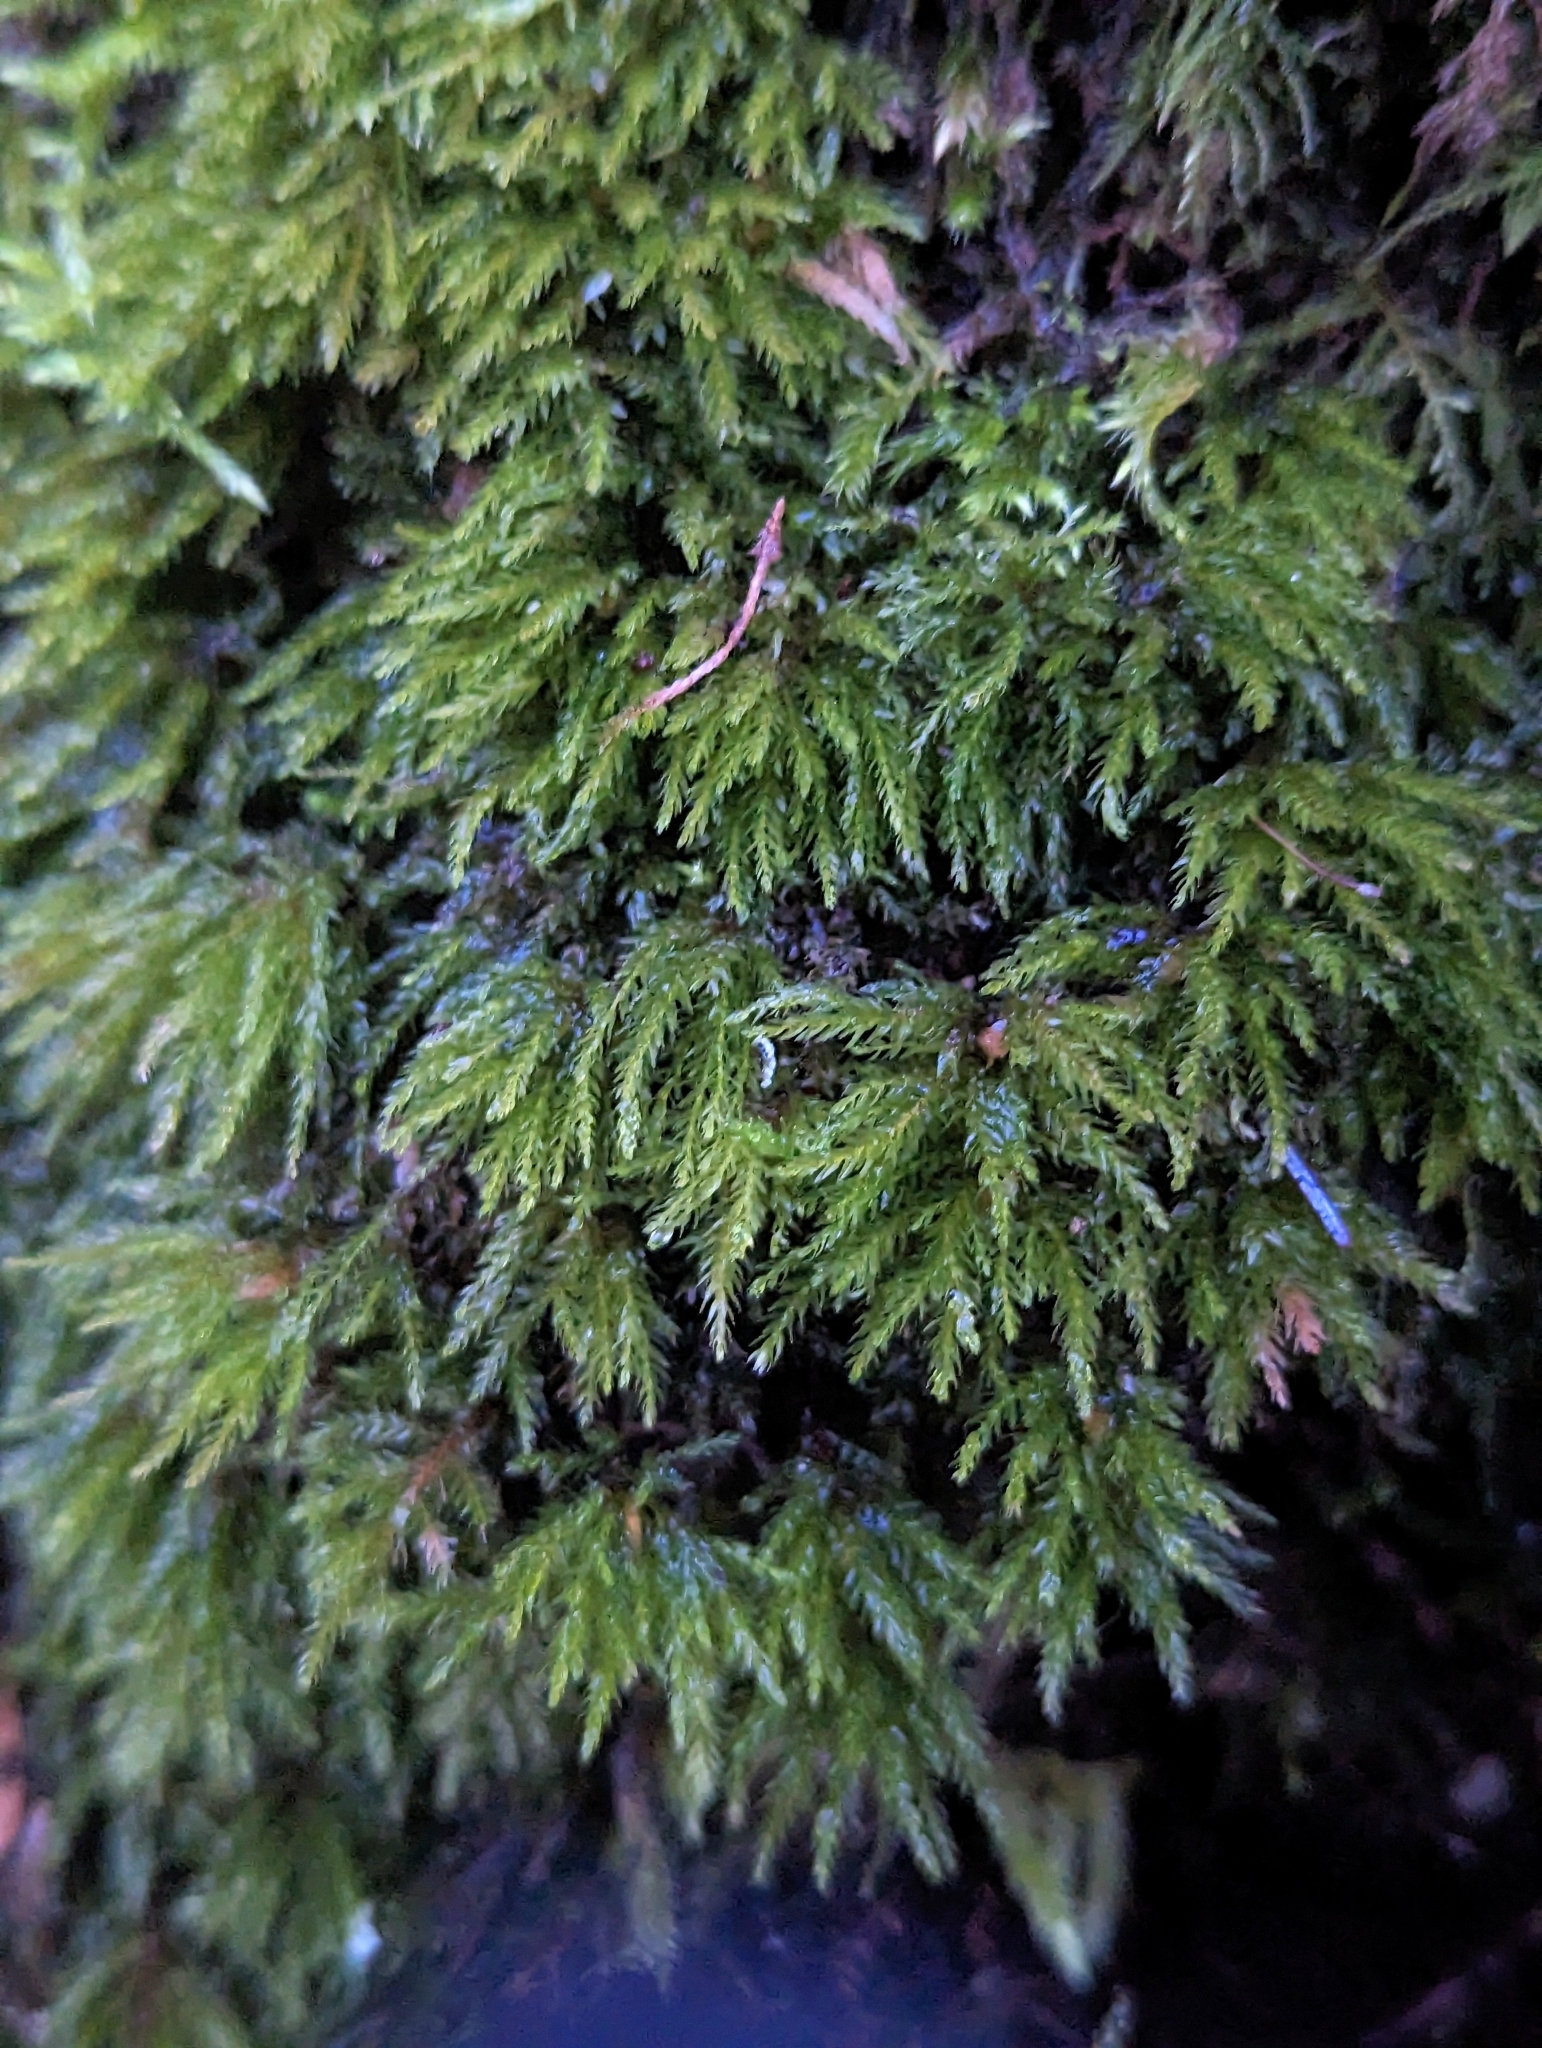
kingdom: Plantae
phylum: Bryophyta
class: Bryopsida
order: Bryales
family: Mniaceae
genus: Leucolepis
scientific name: Leucolepis acanthoneura
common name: Leucolepis umbrella moss
